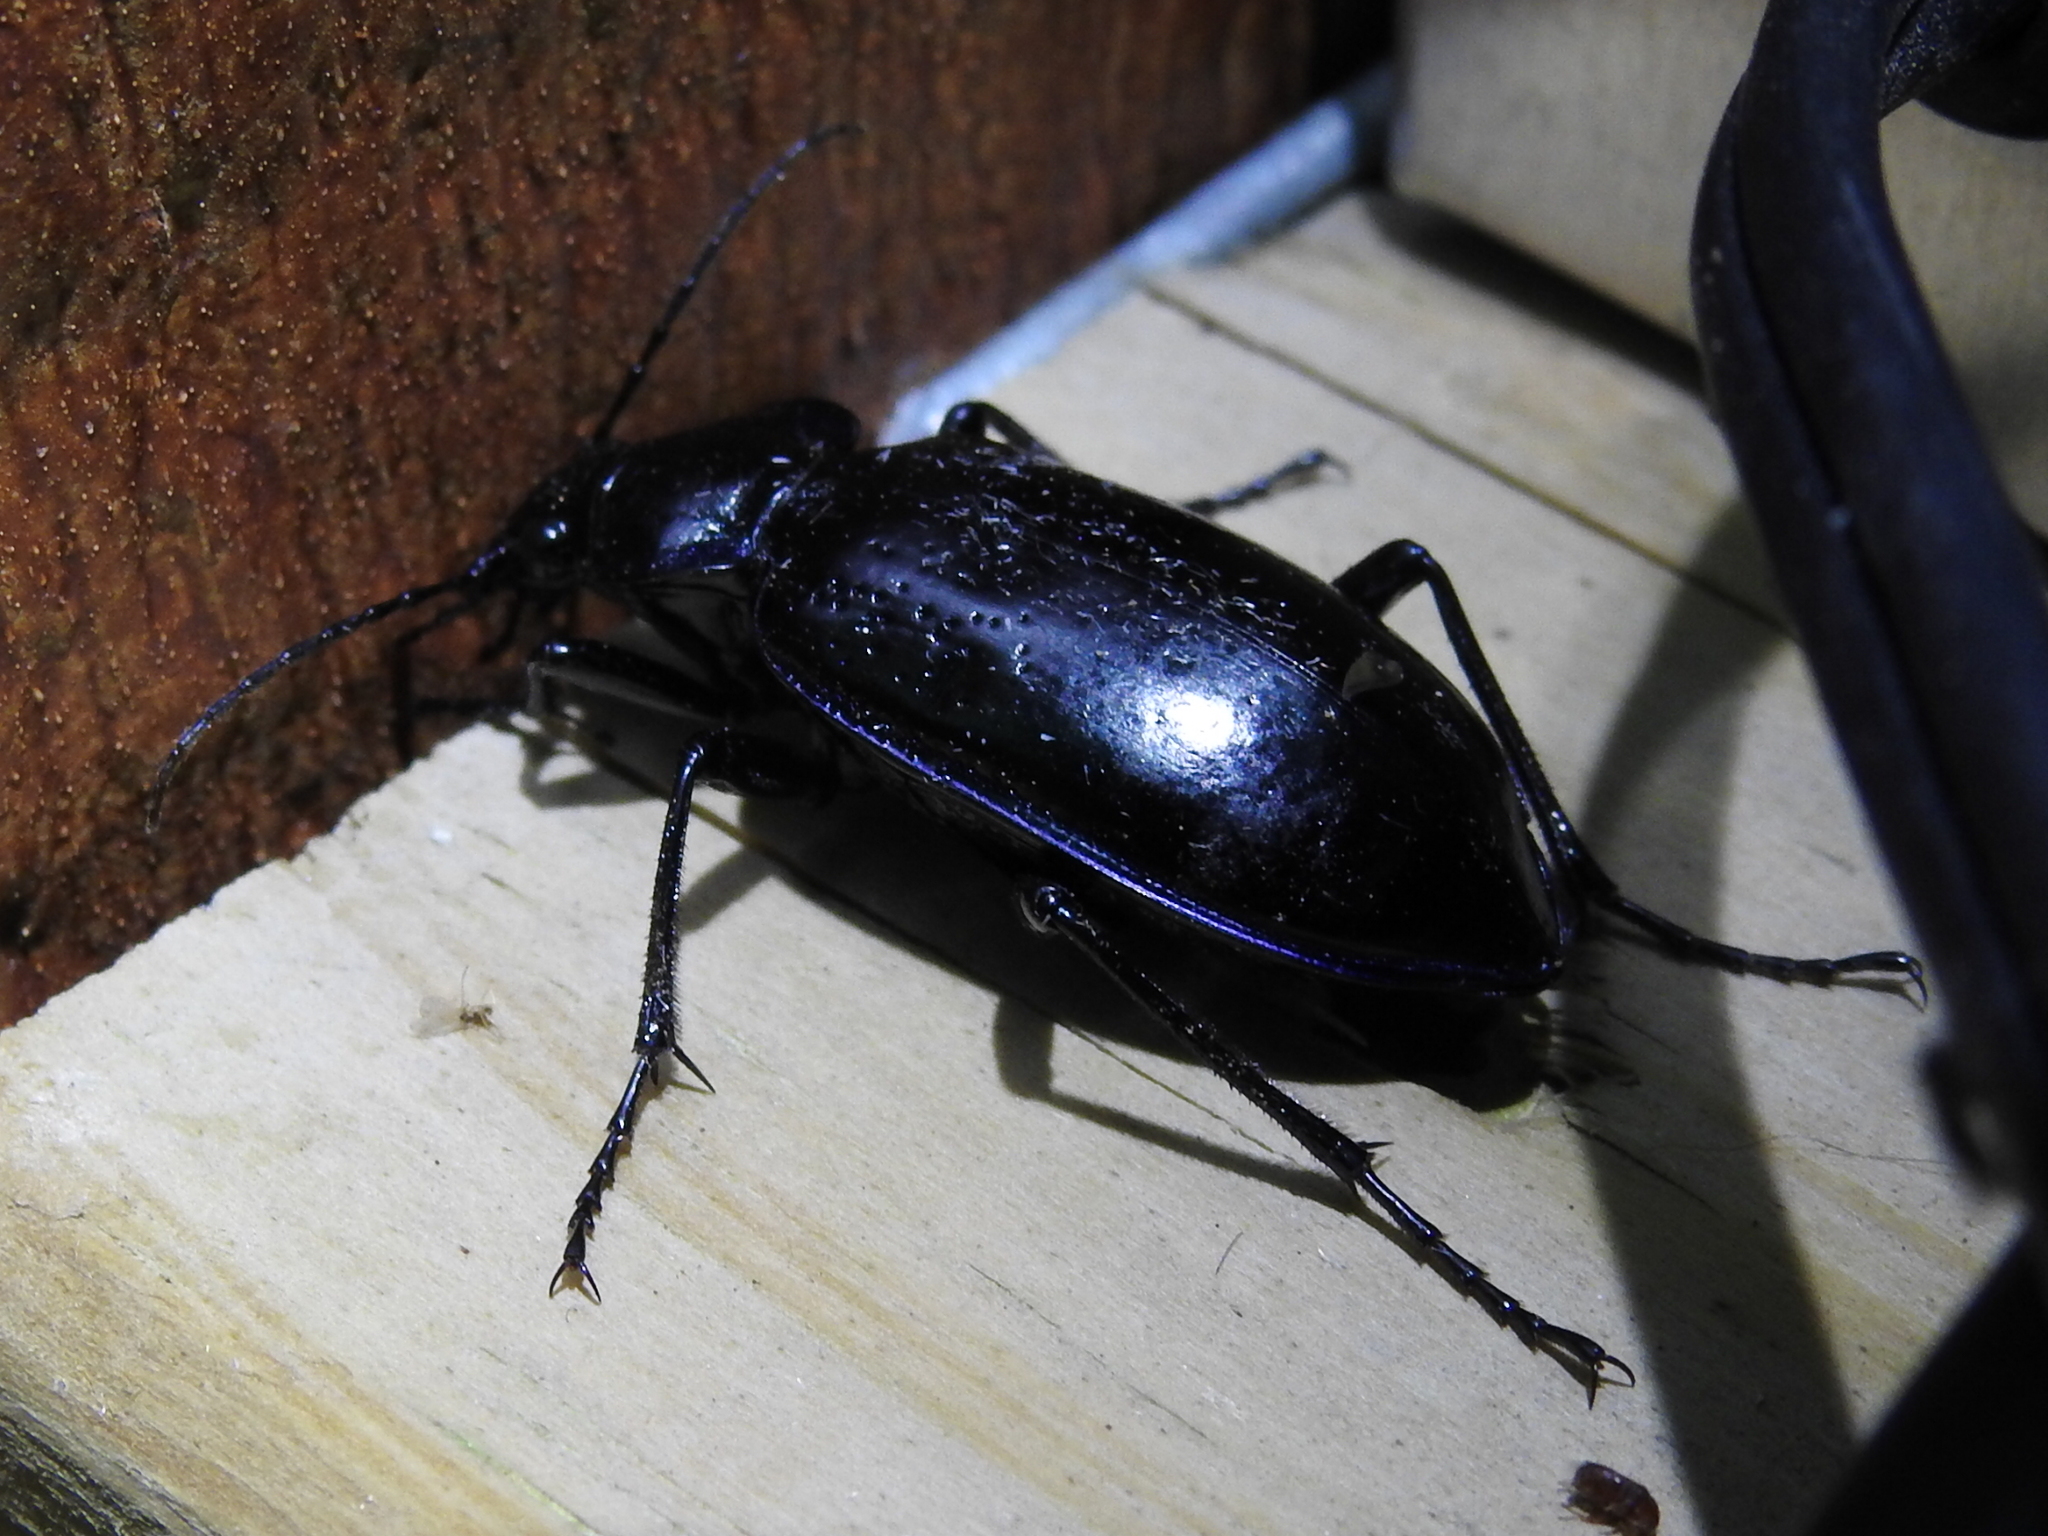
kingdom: Animalia
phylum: Arthropoda
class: Insecta
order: Coleoptera
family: Carabidae
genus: Calosoma
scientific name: Calosoma macrum
